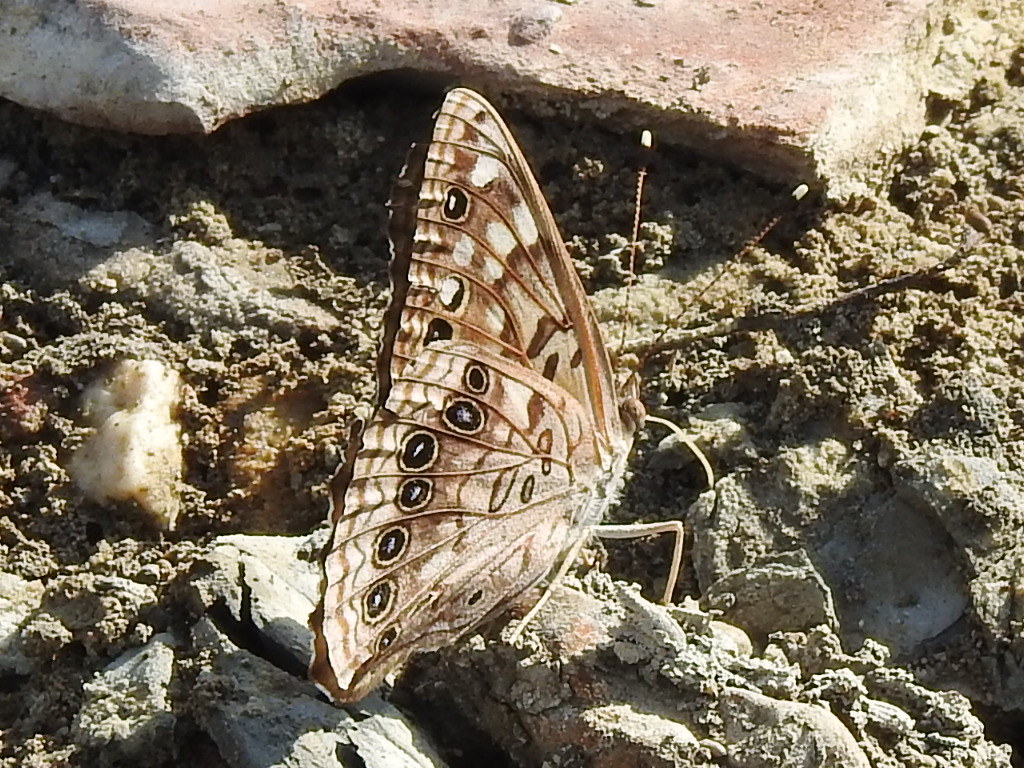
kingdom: Animalia
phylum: Arthropoda
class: Insecta
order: Lepidoptera
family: Nymphalidae
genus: Asterocampa
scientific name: Asterocampa celtis
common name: Hackberry emperor
